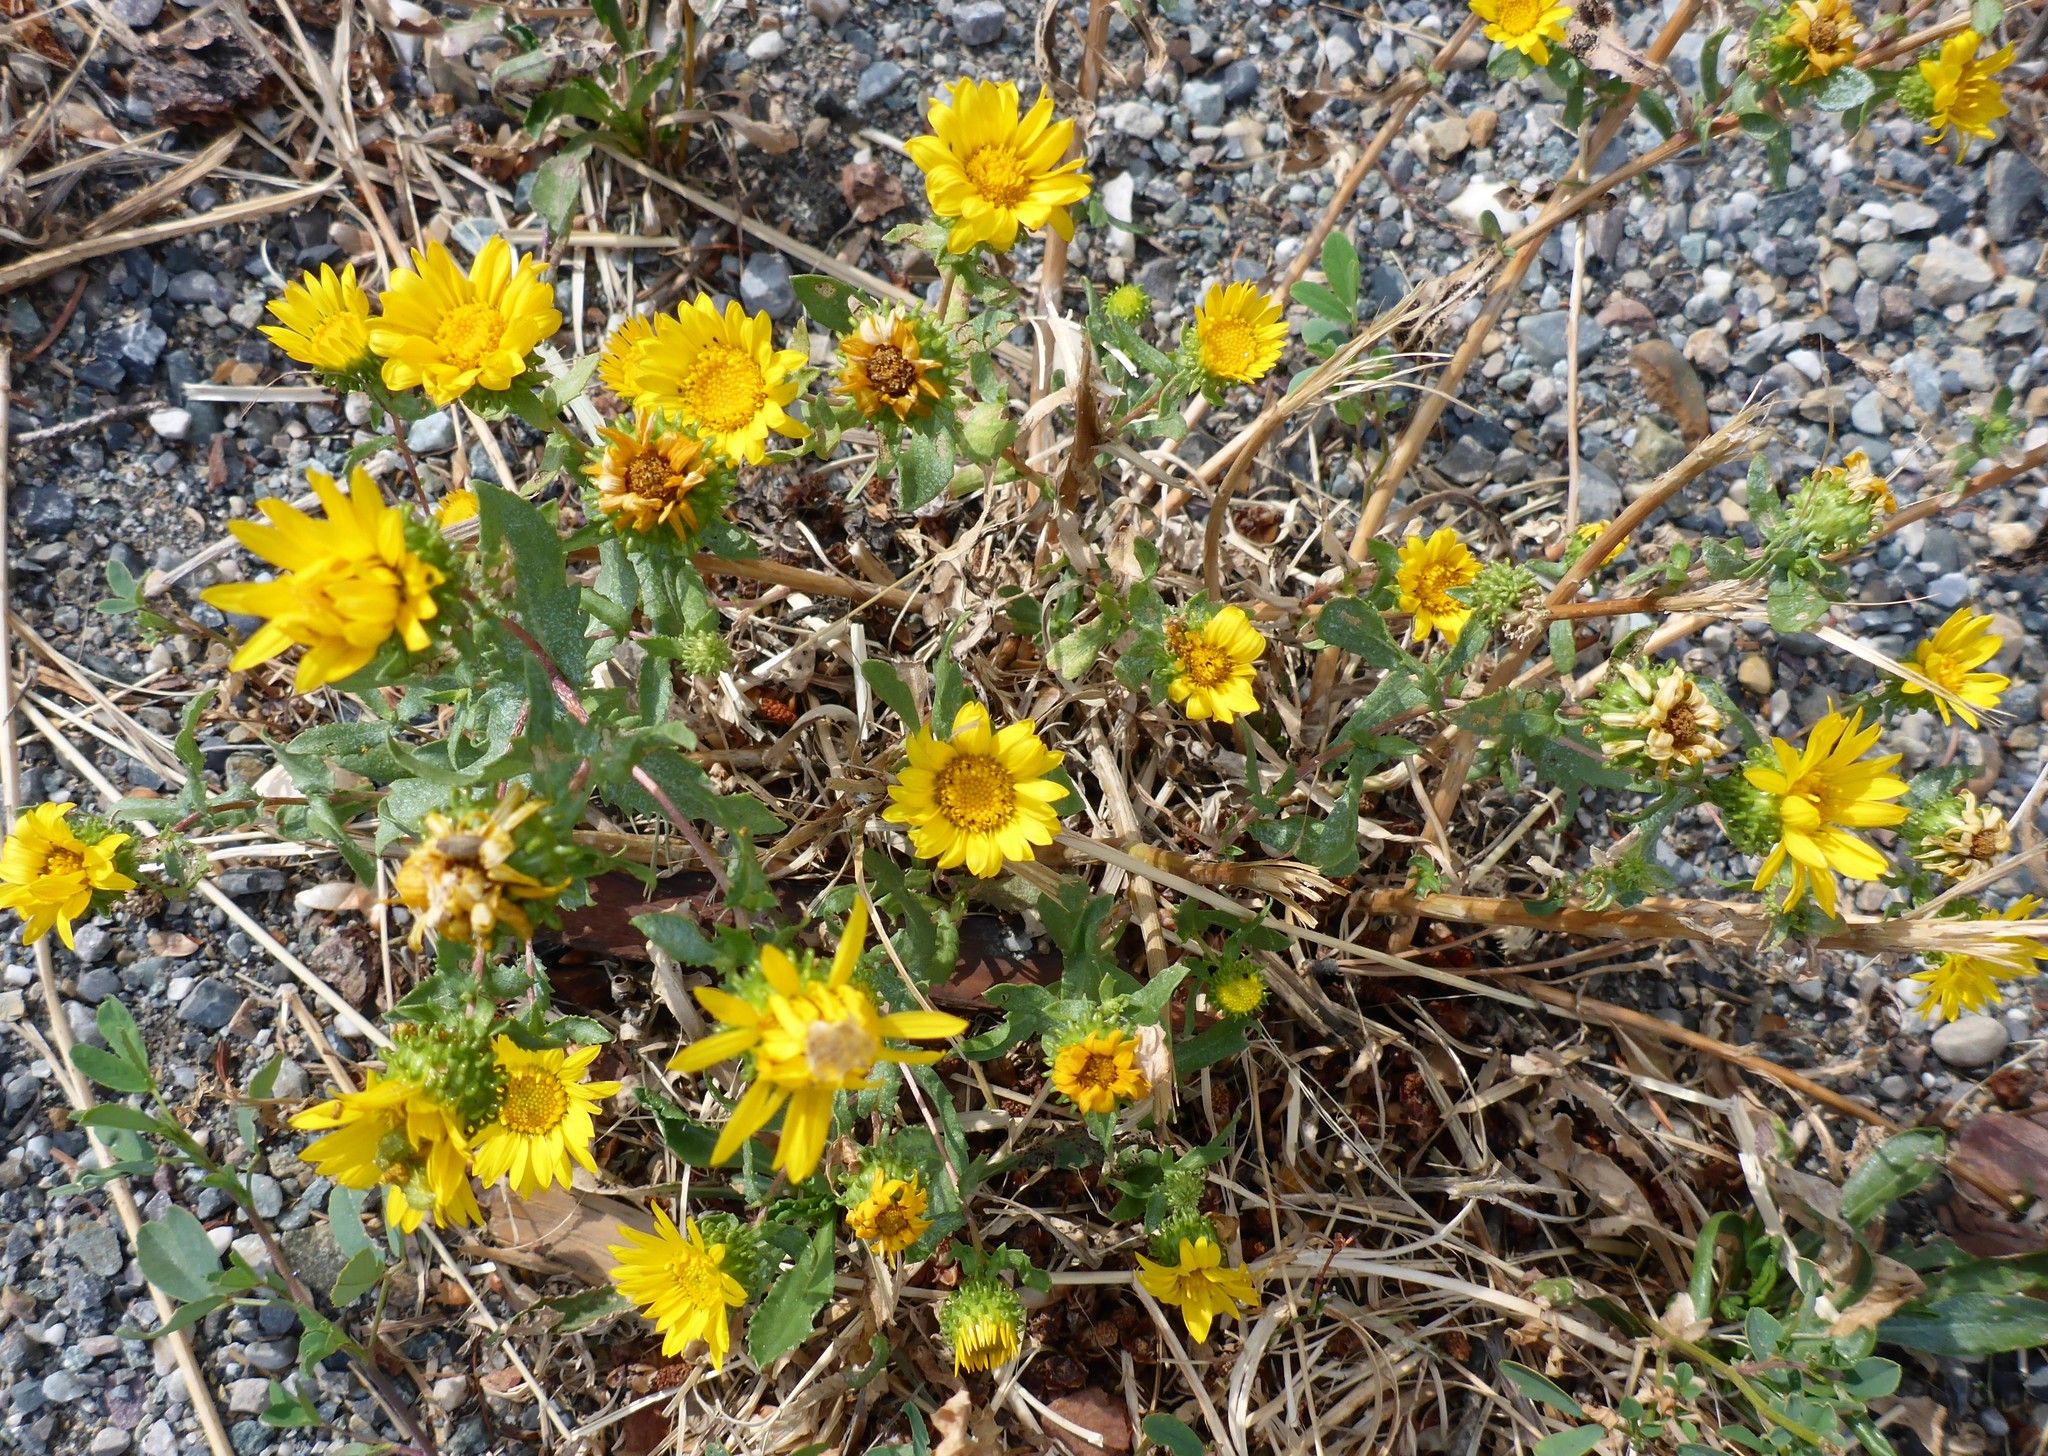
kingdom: Plantae
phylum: Tracheophyta
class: Magnoliopsida
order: Asterales
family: Asteraceae
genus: Grindelia
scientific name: Grindelia squarrosa
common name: Curly-cup gumweed
